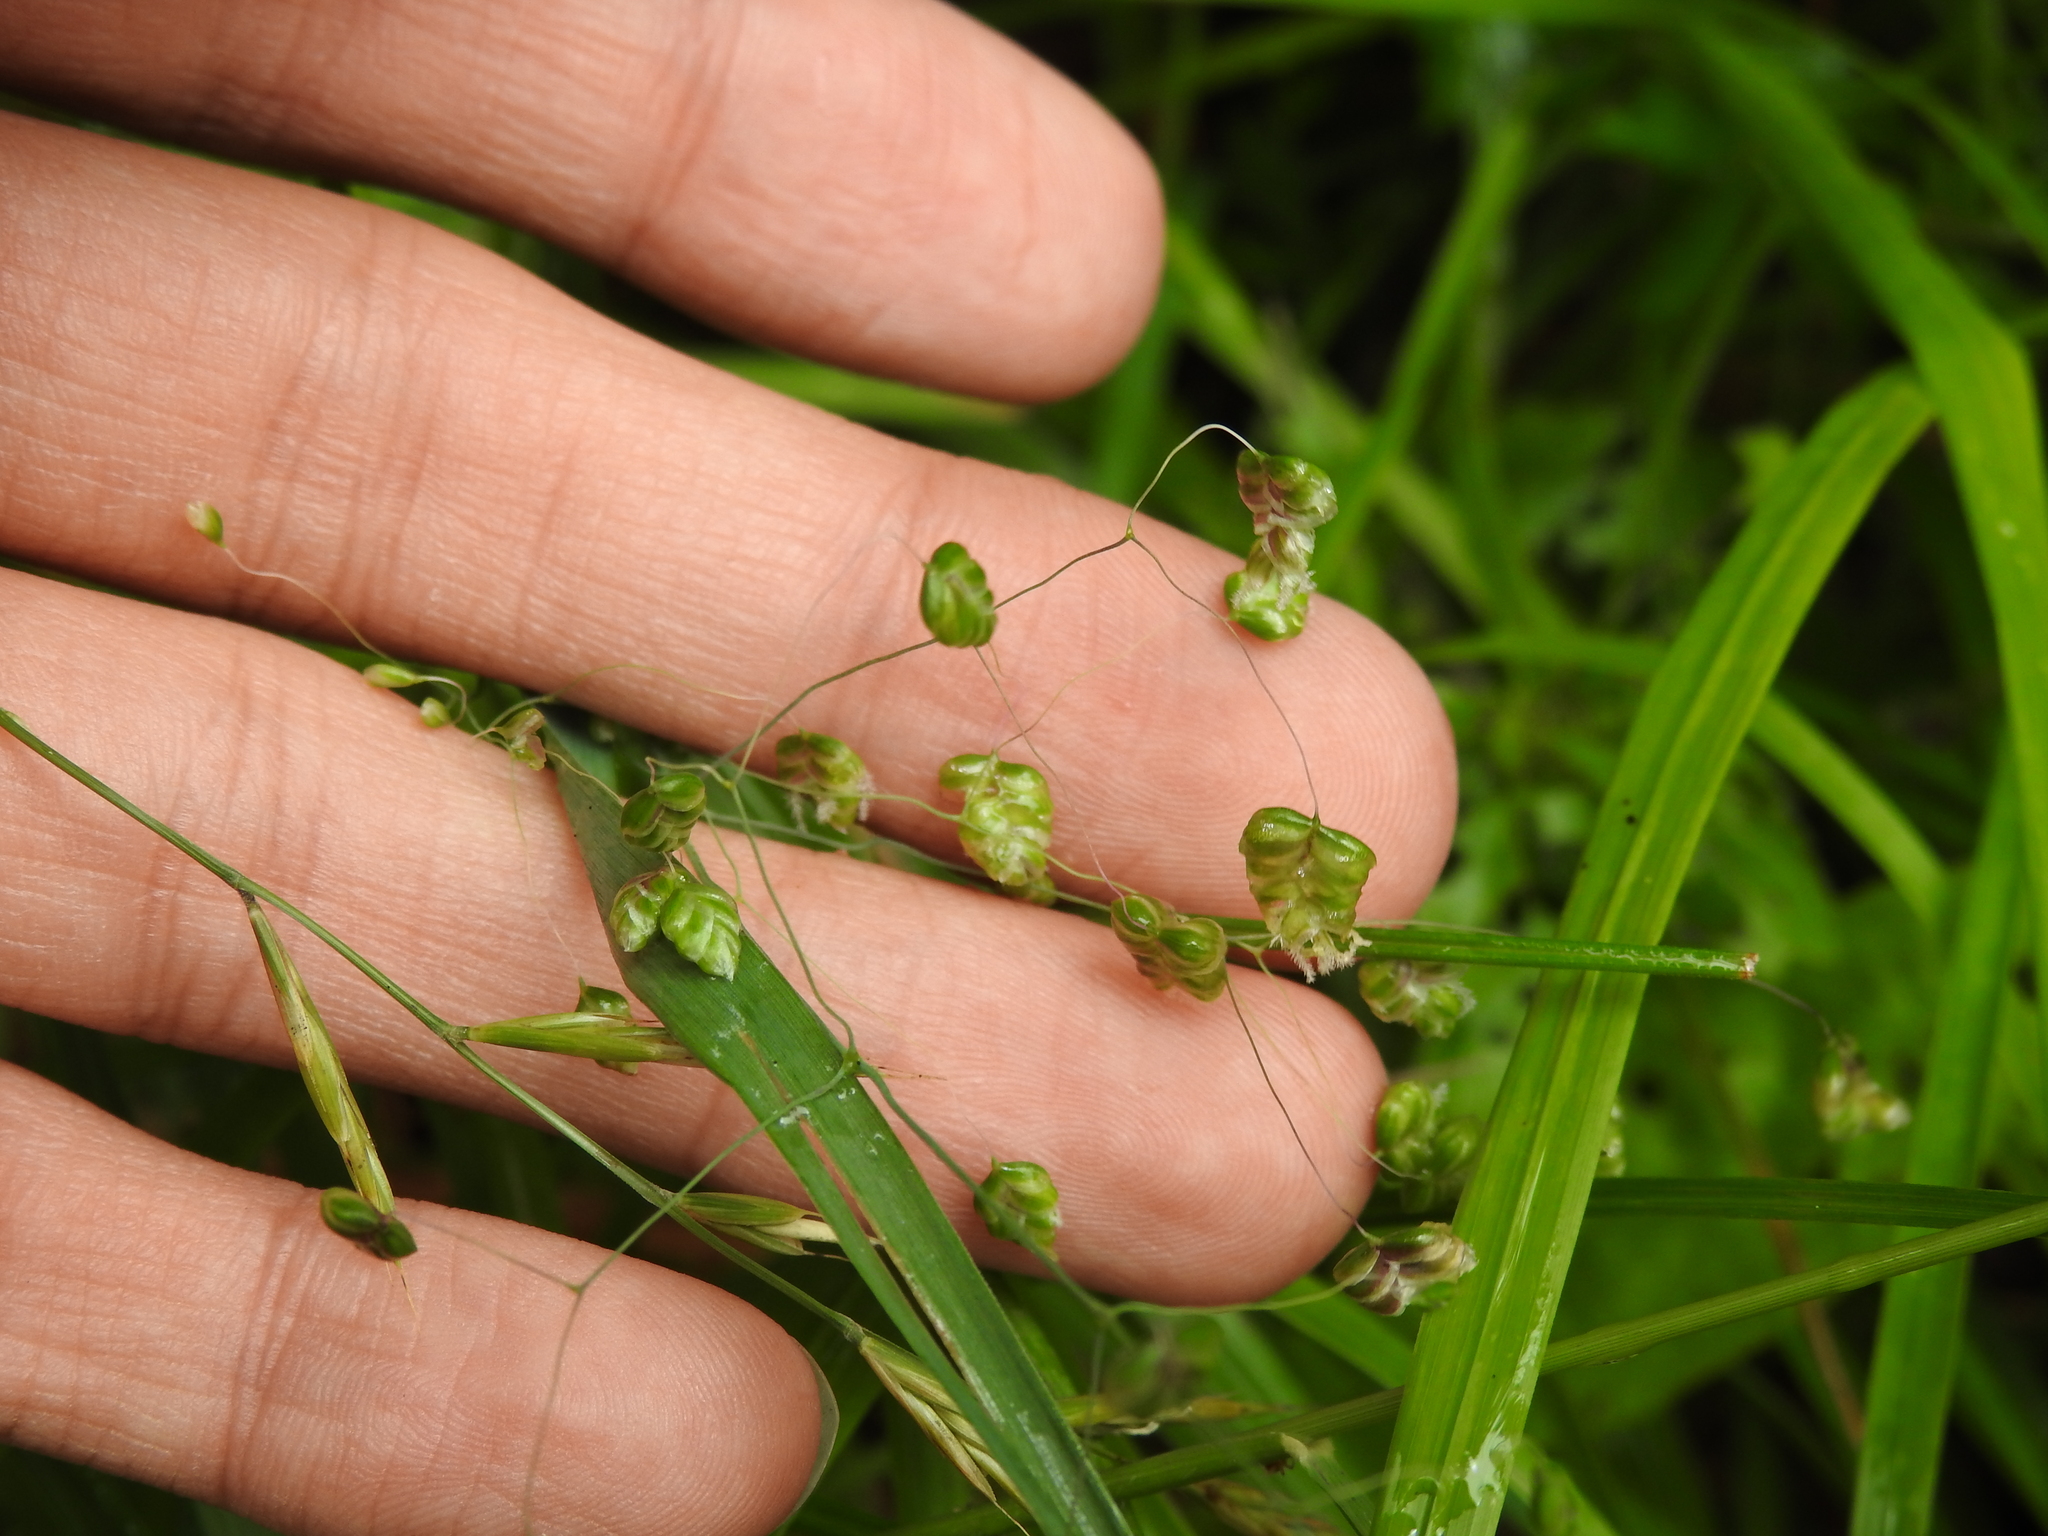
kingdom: Plantae
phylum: Tracheophyta
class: Liliopsida
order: Poales
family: Poaceae
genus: Briza
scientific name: Briza media
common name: Quaking grass
